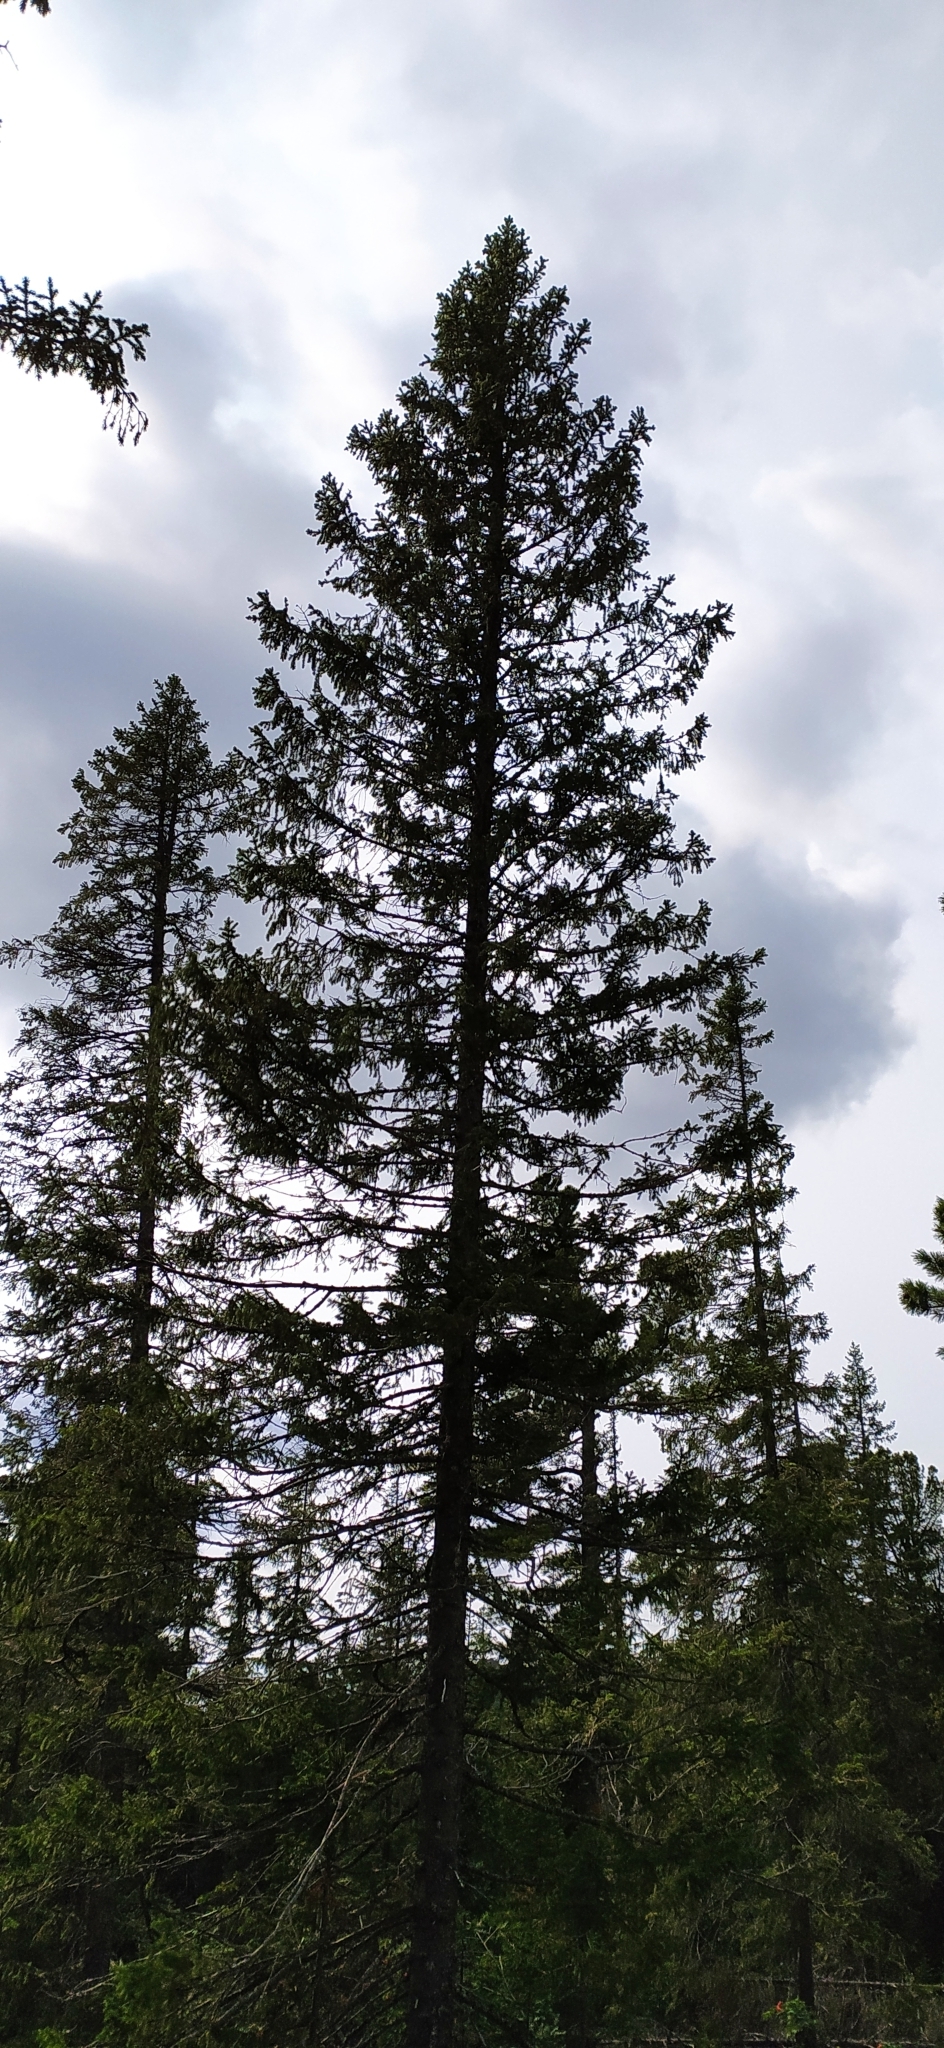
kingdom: Plantae
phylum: Tracheophyta
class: Pinopsida
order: Pinales
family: Pinaceae
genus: Picea
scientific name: Picea obovata
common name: Siberian spruce
